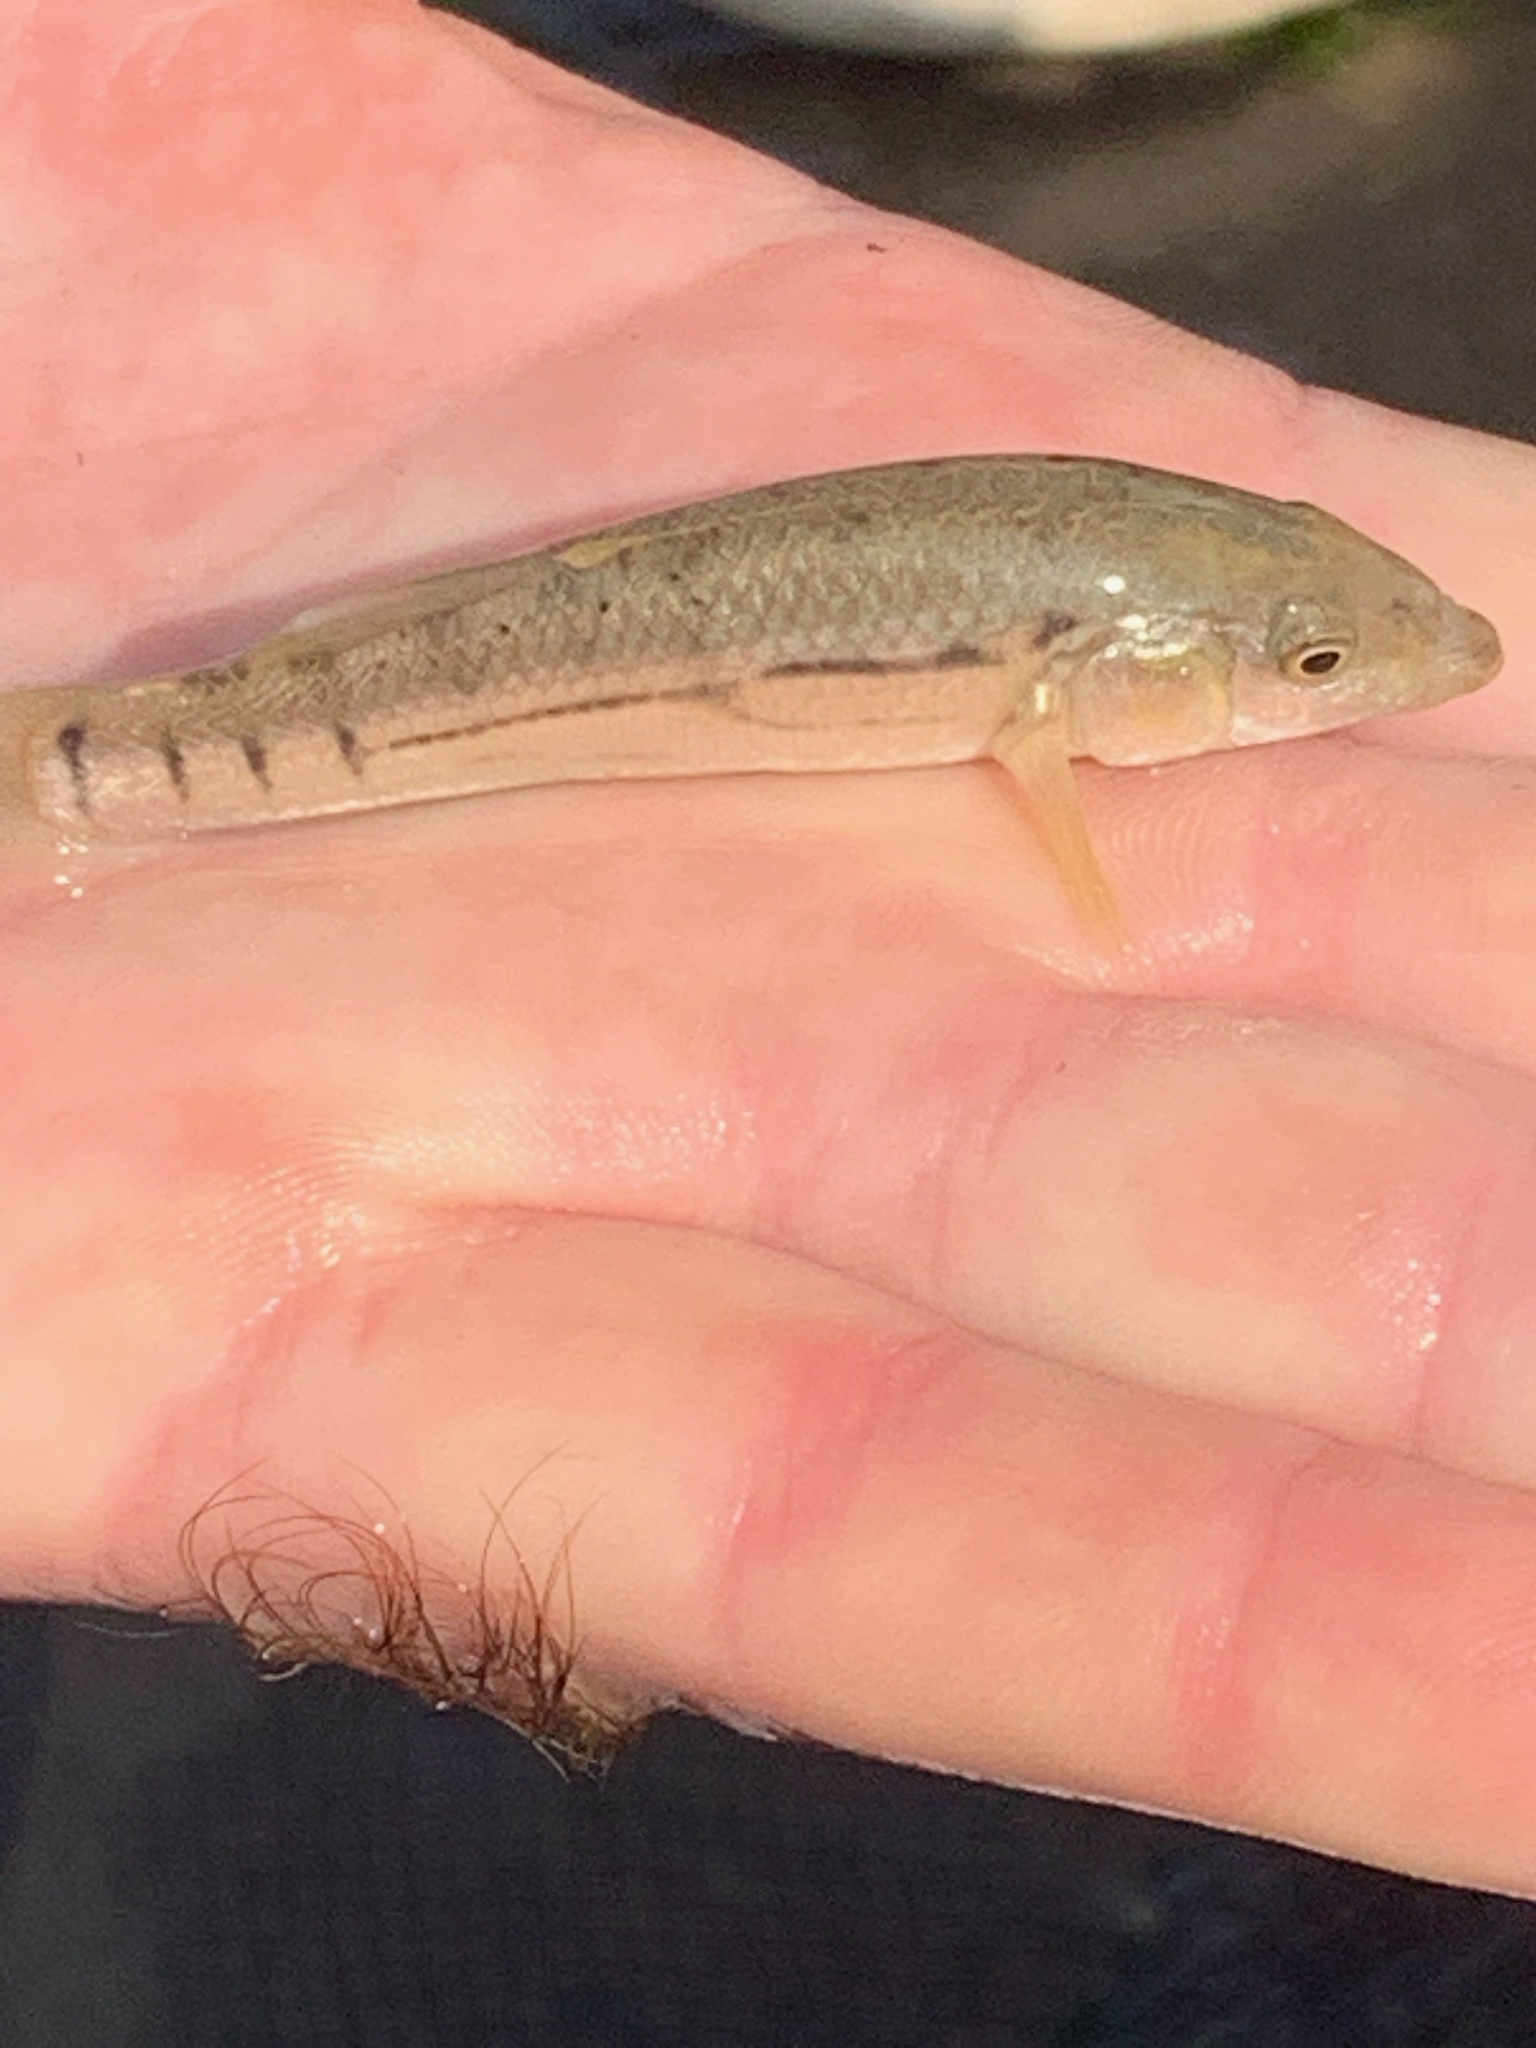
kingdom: Animalia
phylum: Chordata
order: Cyprinodontiformes
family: Fundulidae
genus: Fundulus
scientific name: Fundulus majalis
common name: Striped killifish
